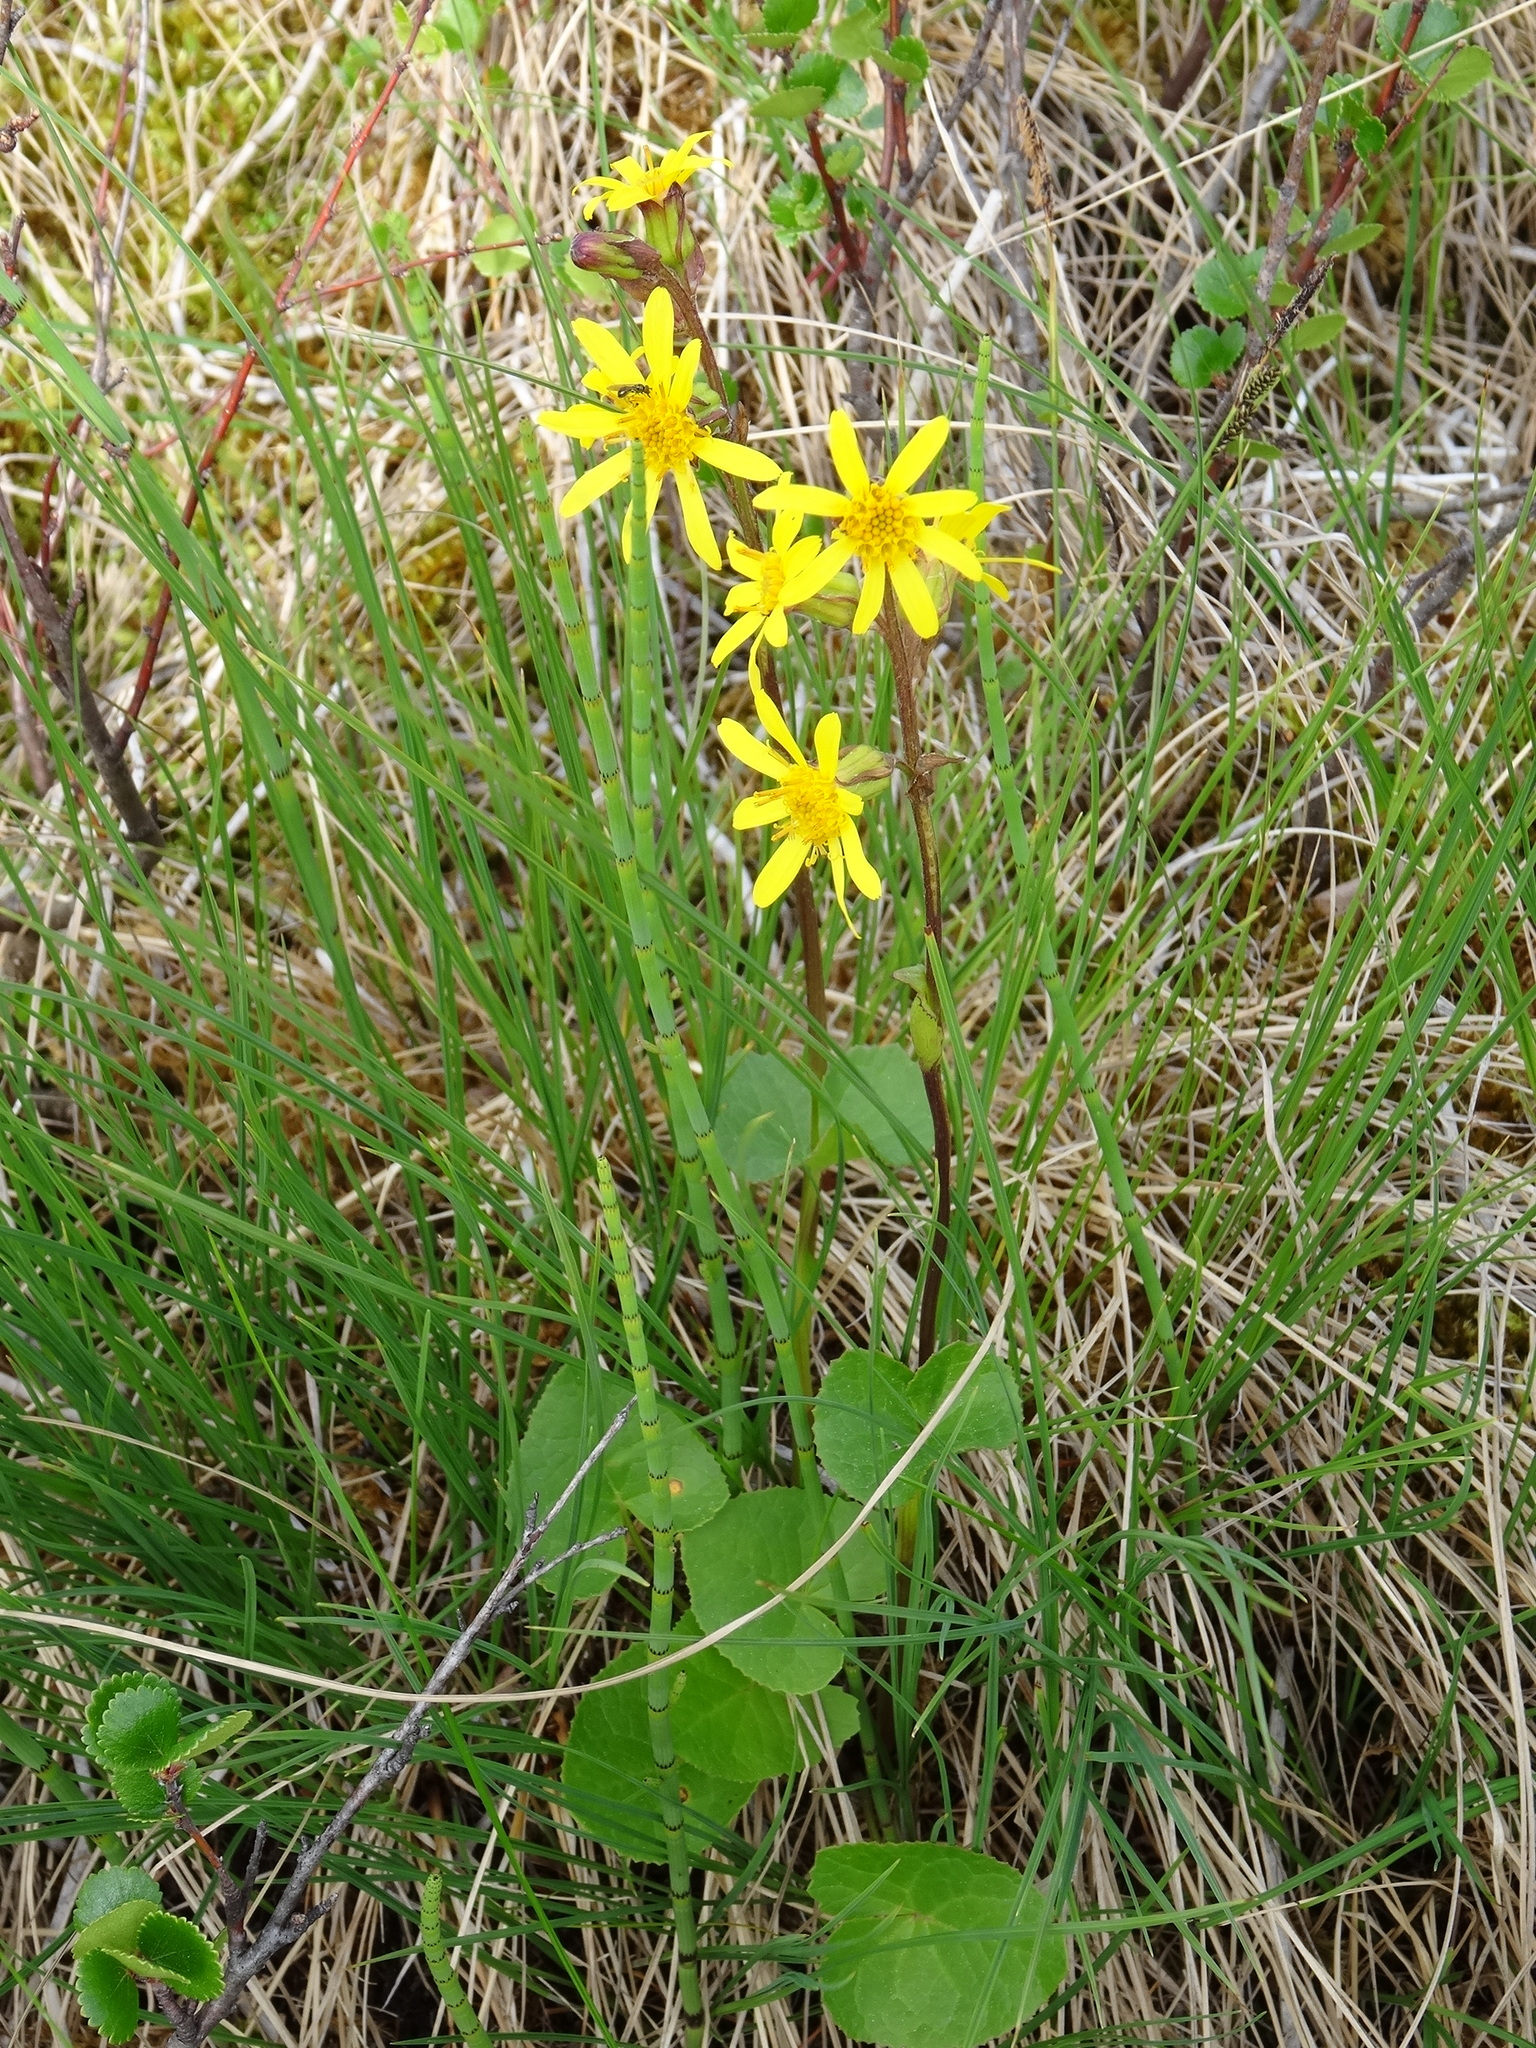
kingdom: Plantae
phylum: Tracheophyta
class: Magnoliopsida
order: Asterales
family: Asteraceae
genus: Ligularia
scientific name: Ligularia sibirica
